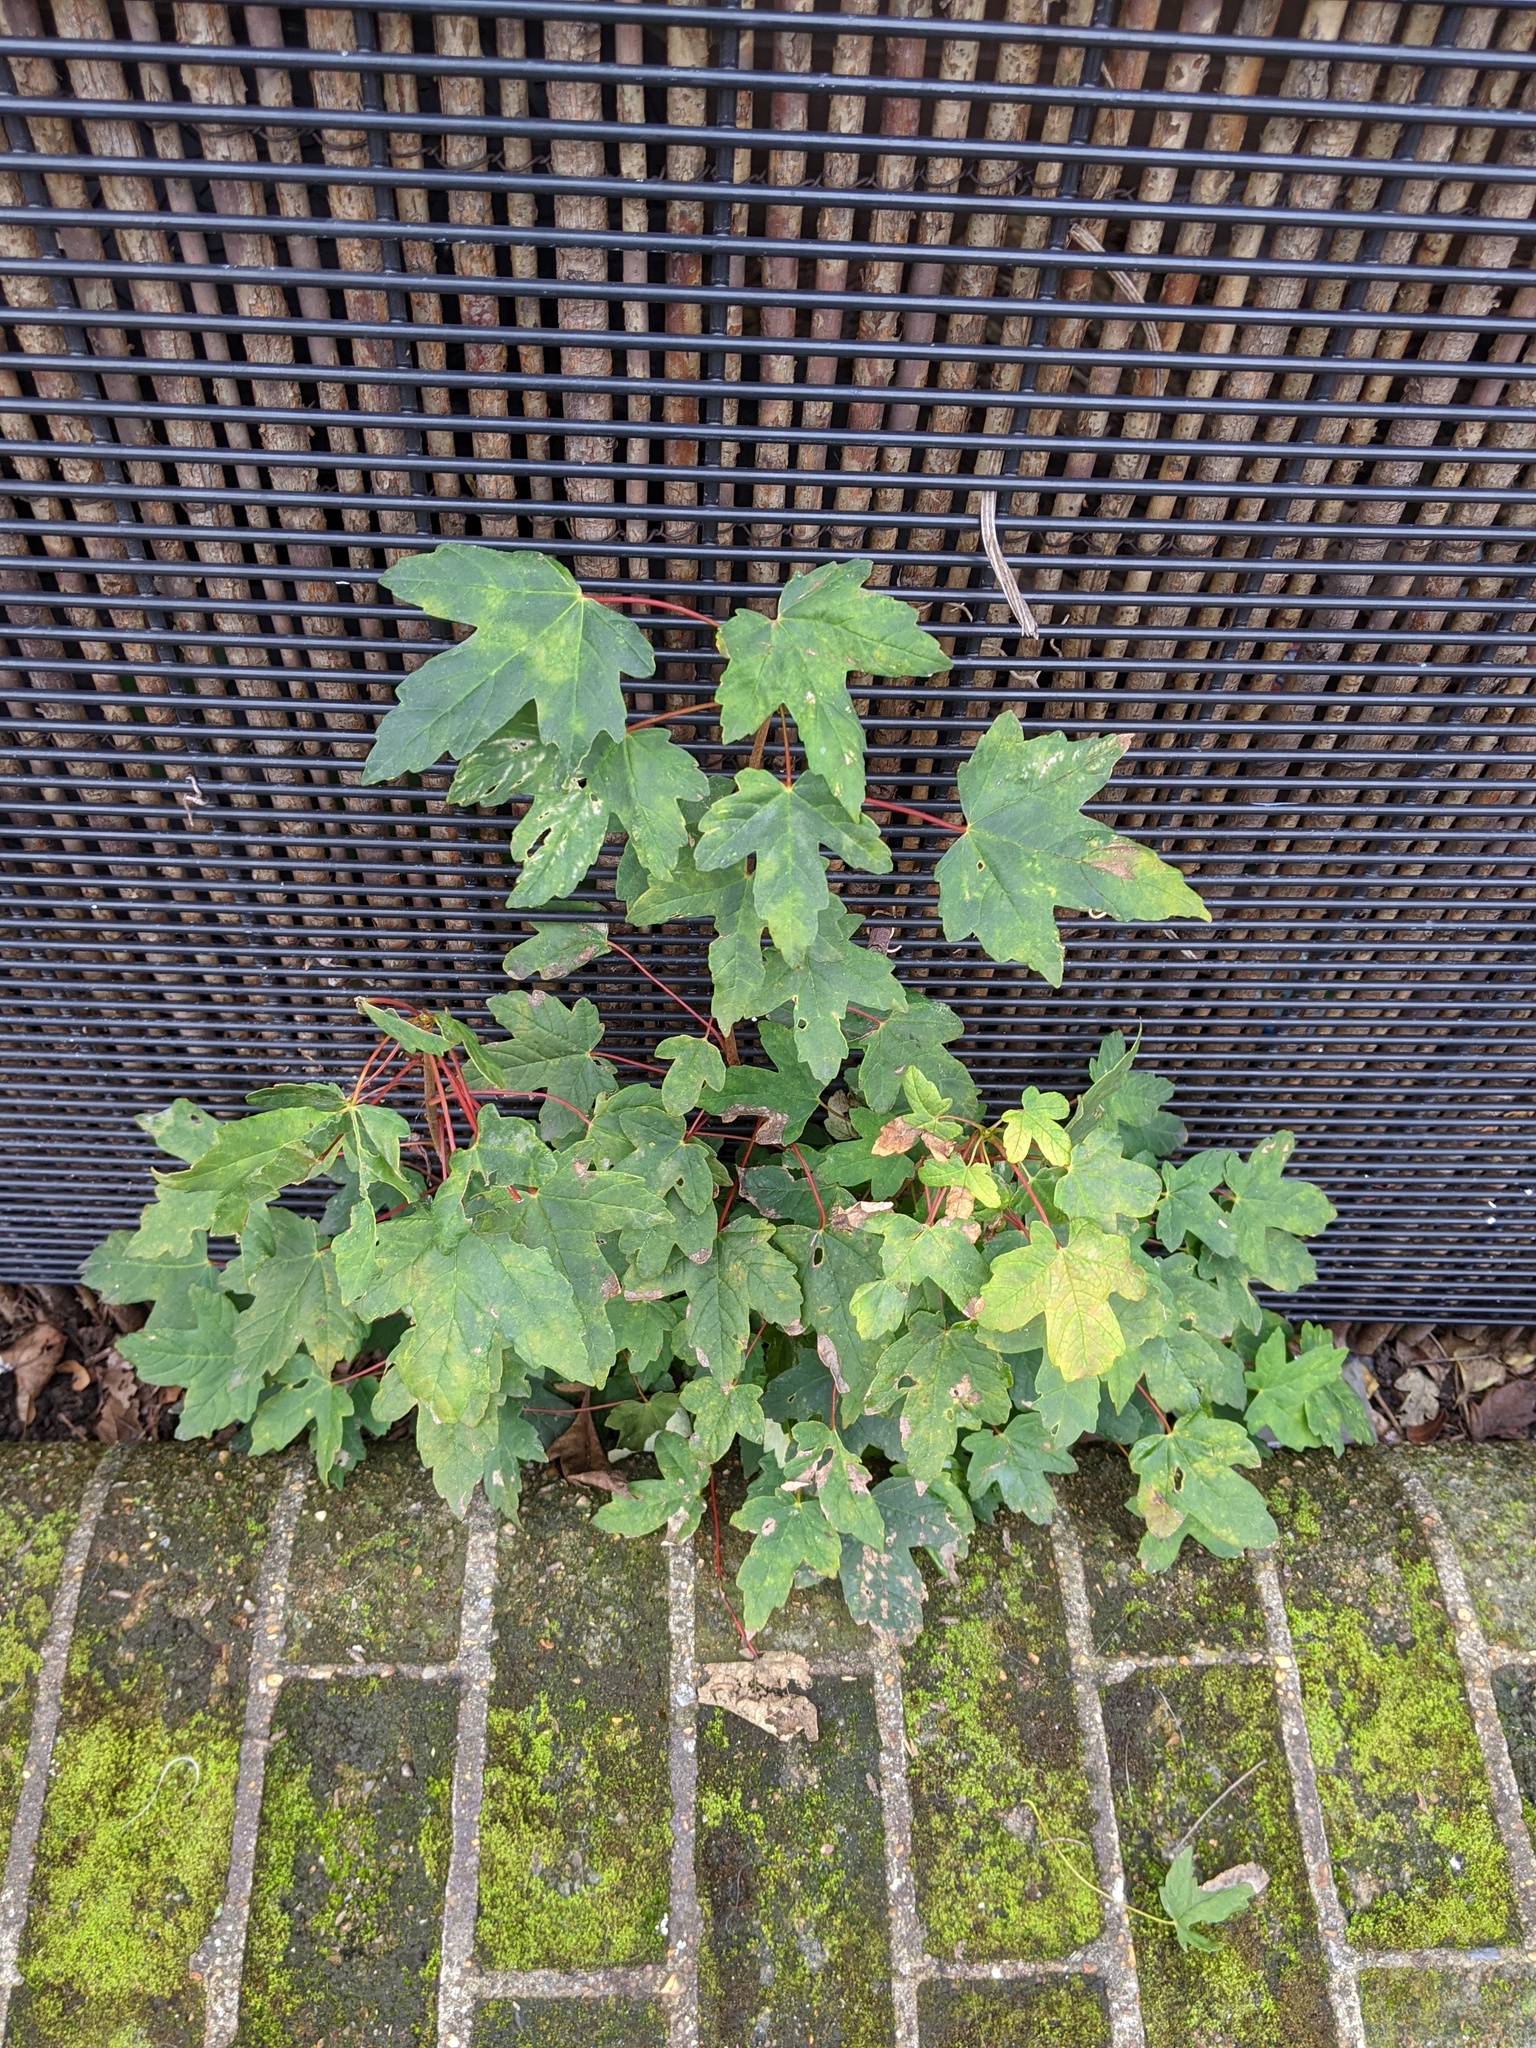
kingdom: Plantae
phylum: Tracheophyta
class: Magnoliopsida
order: Sapindales
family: Sapindaceae
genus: Acer
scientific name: Acer pseudoplatanus
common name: Sycamore
